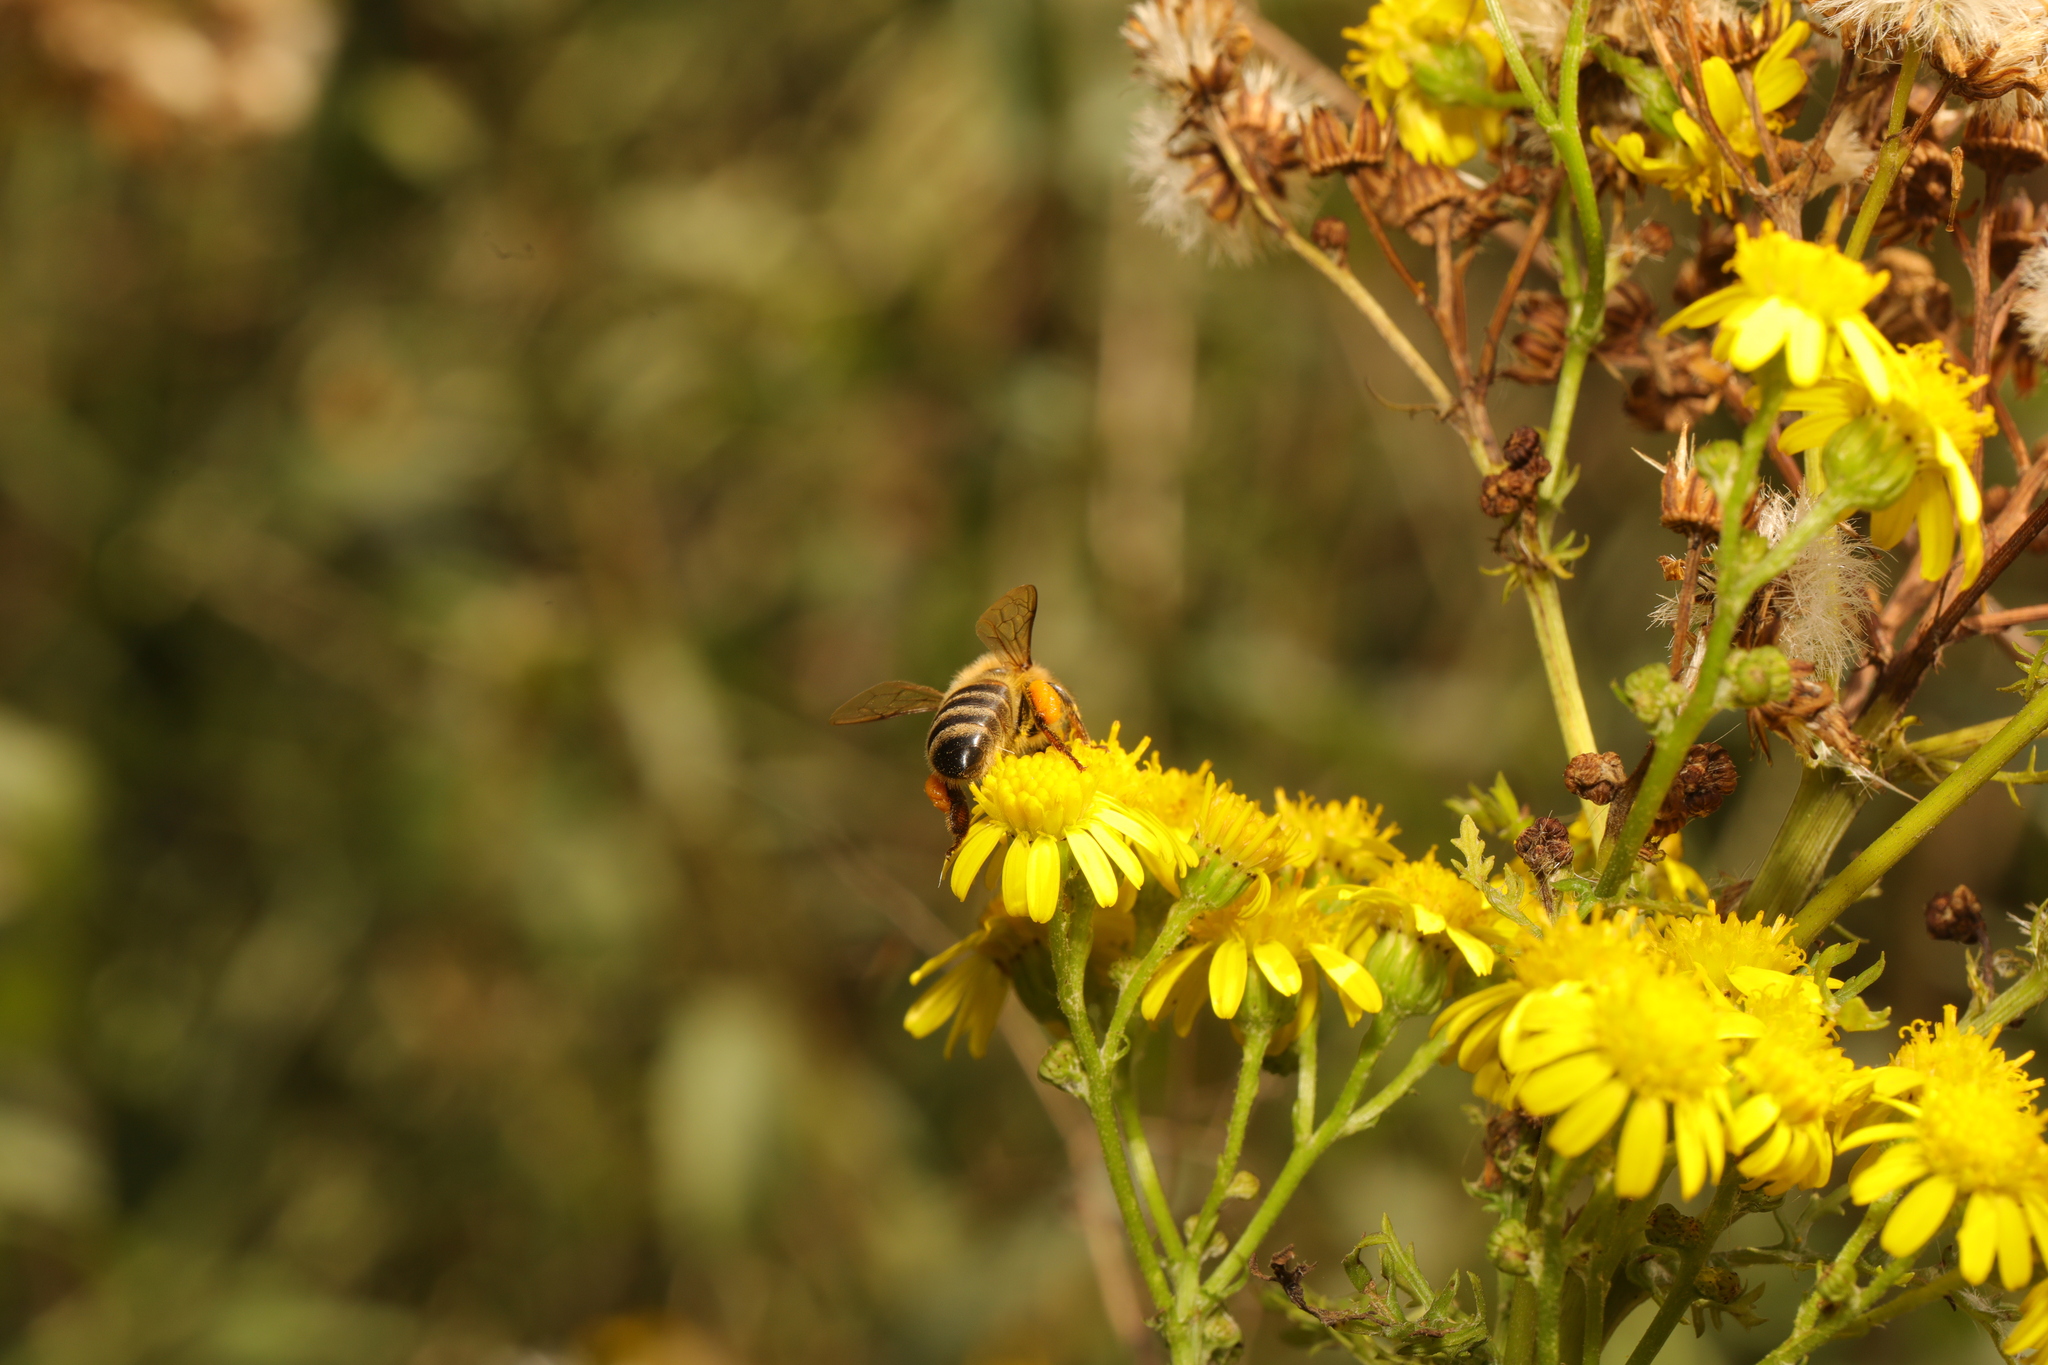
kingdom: Animalia
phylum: Arthropoda
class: Insecta
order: Hymenoptera
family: Apidae
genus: Apis
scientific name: Apis mellifera
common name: Honey bee
